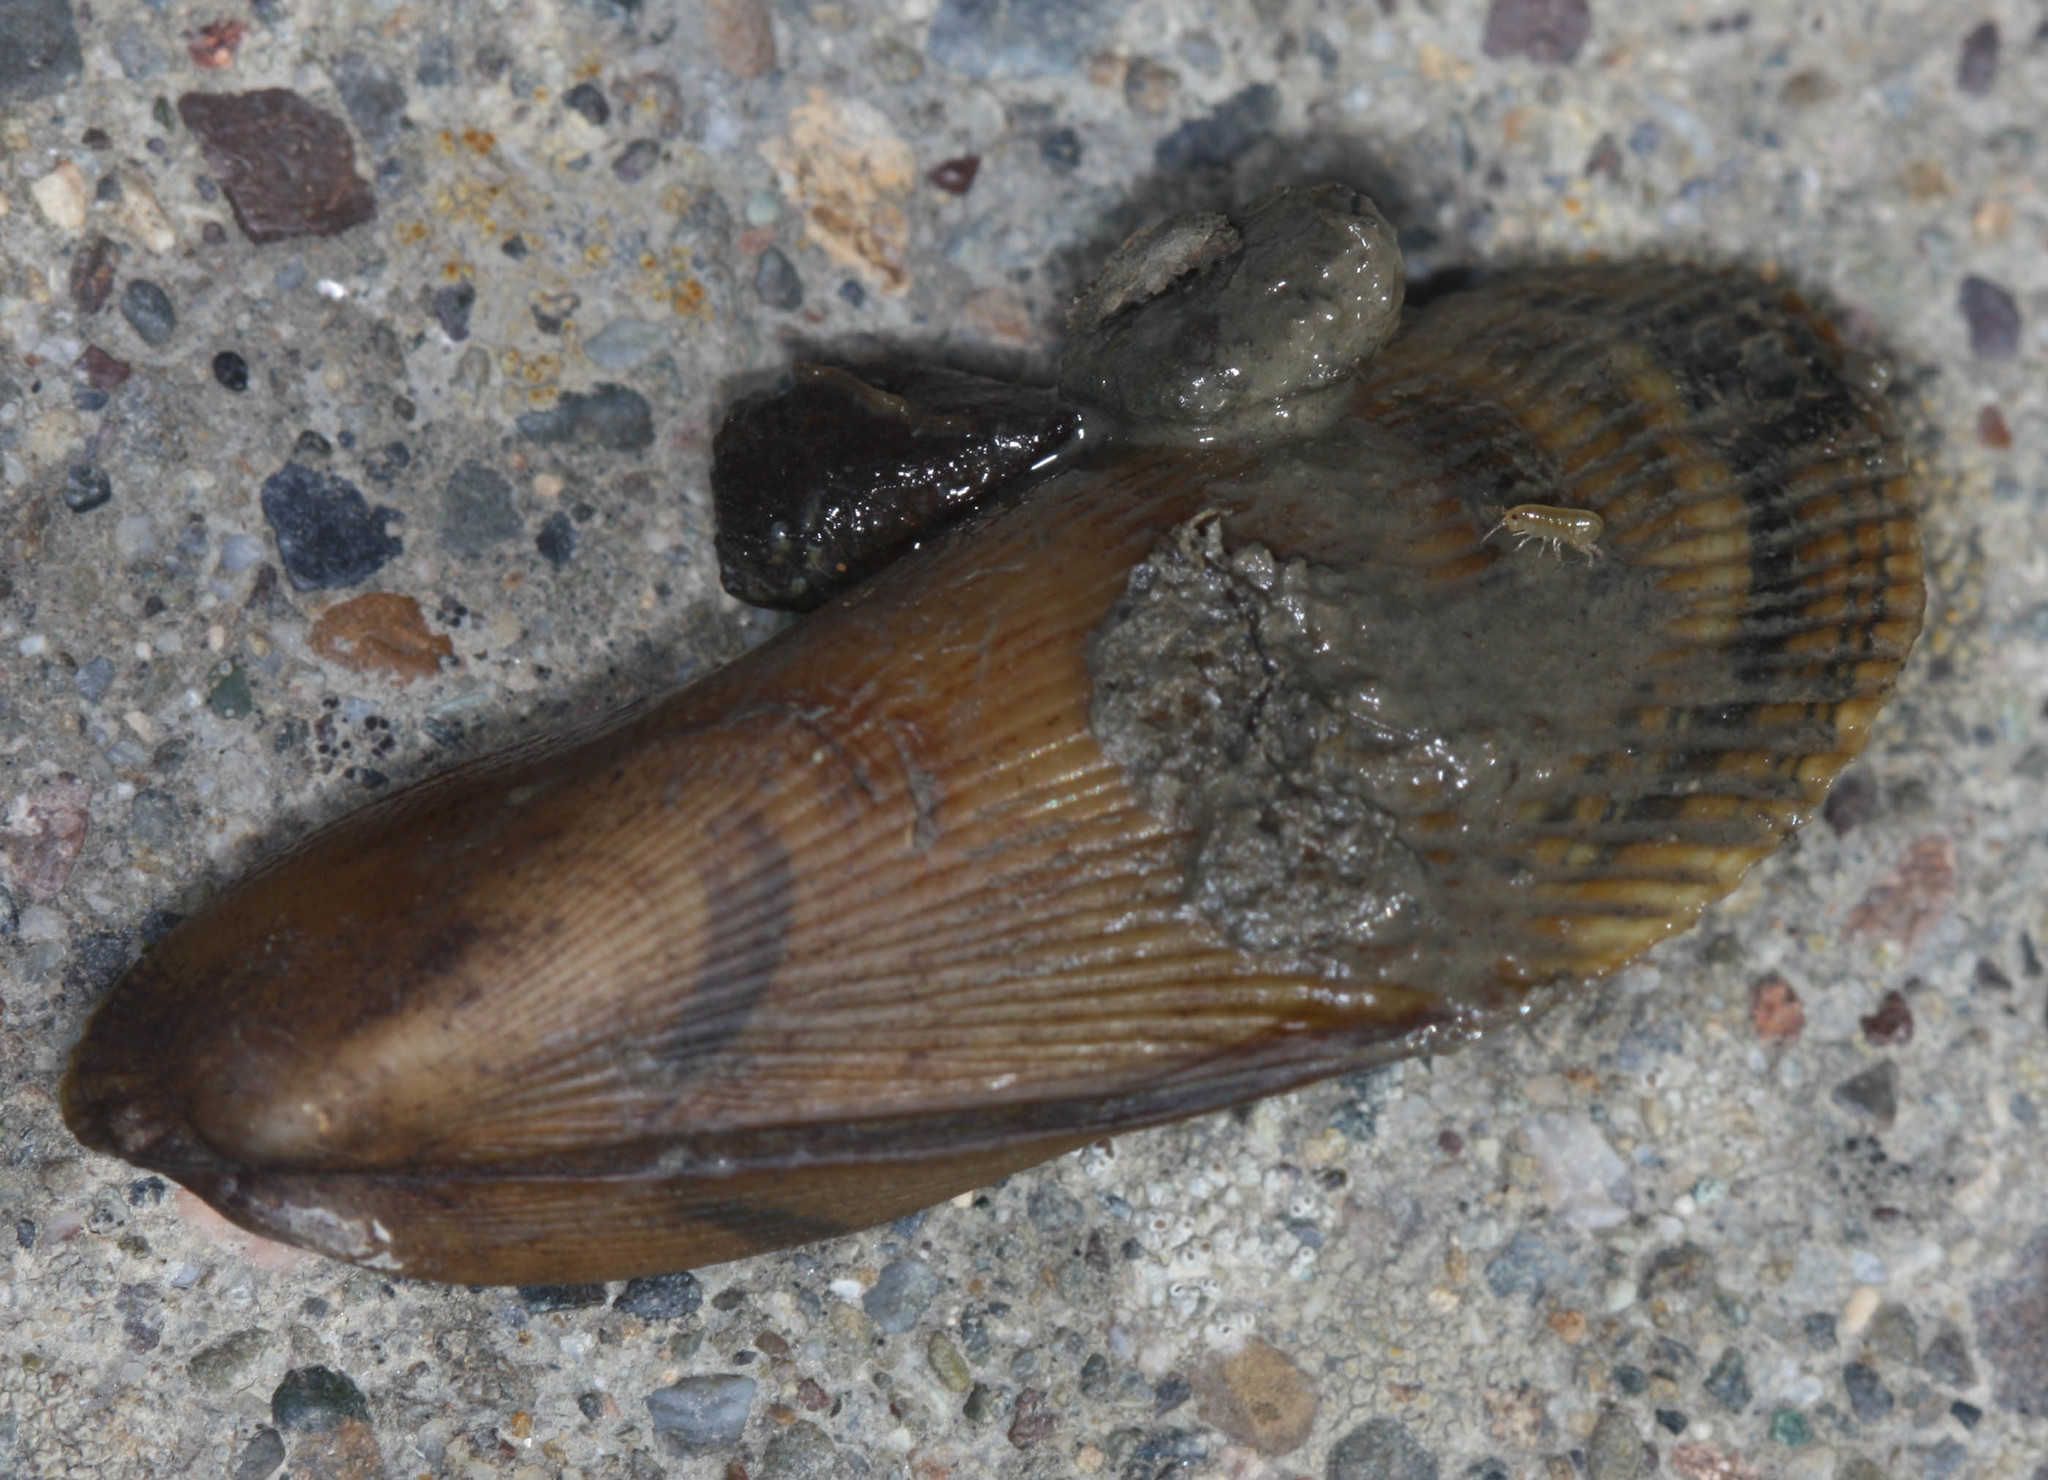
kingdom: Animalia
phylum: Mollusca
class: Bivalvia
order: Mytilida
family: Mytilidae
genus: Geukensia
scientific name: Geukensia demissa
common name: Ribbed mussel
